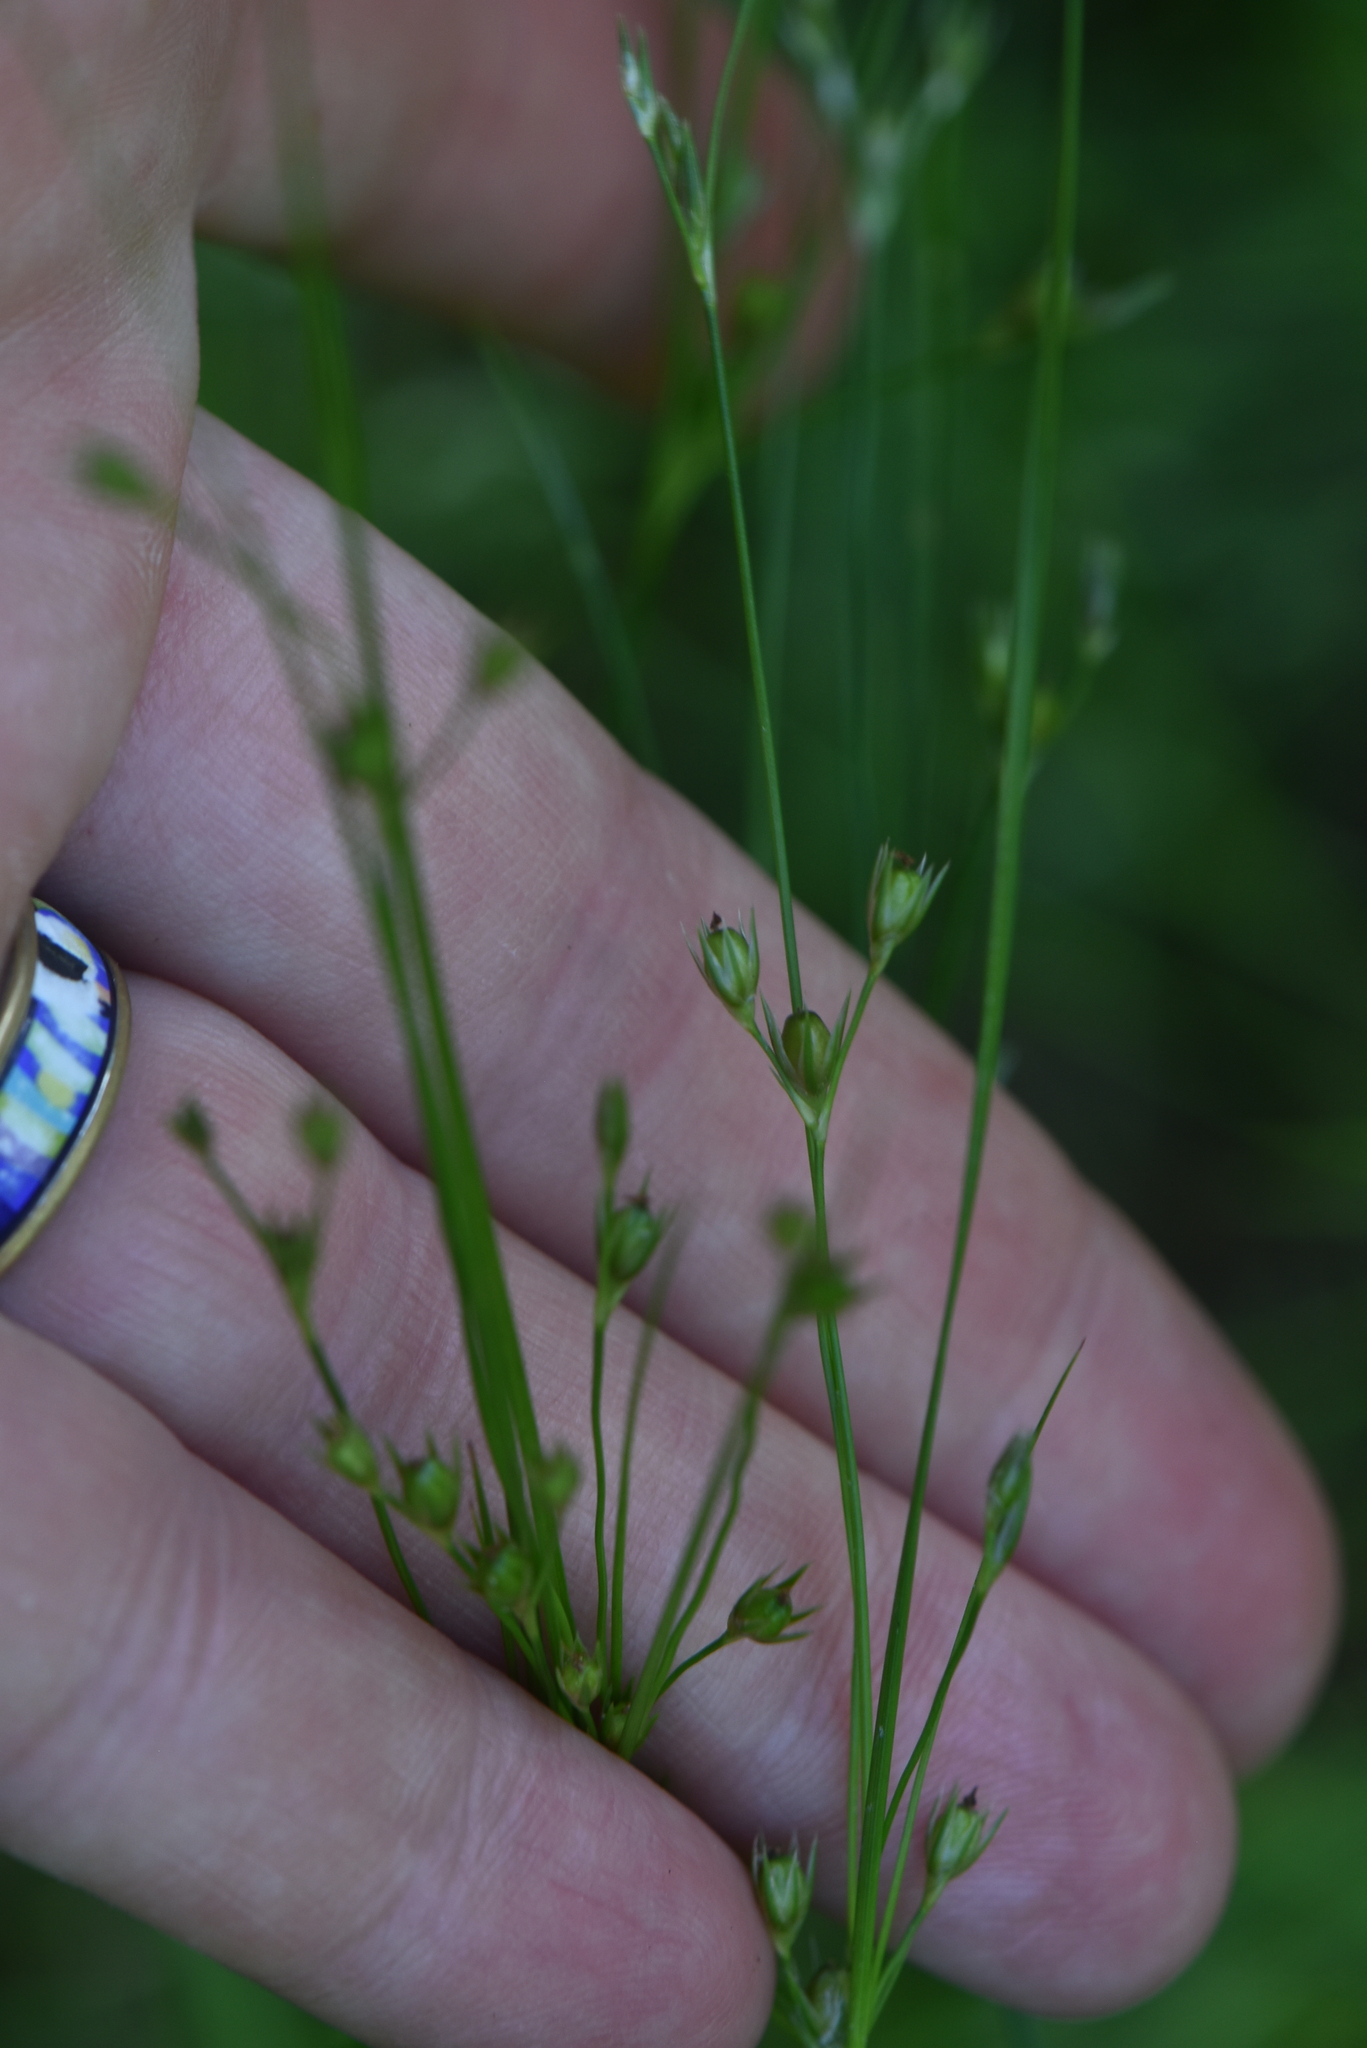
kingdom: Plantae
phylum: Tracheophyta
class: Liliopsida
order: Poales
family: Juncaceae
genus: Juncus
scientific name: Juncus tenuis
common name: Slender rush
